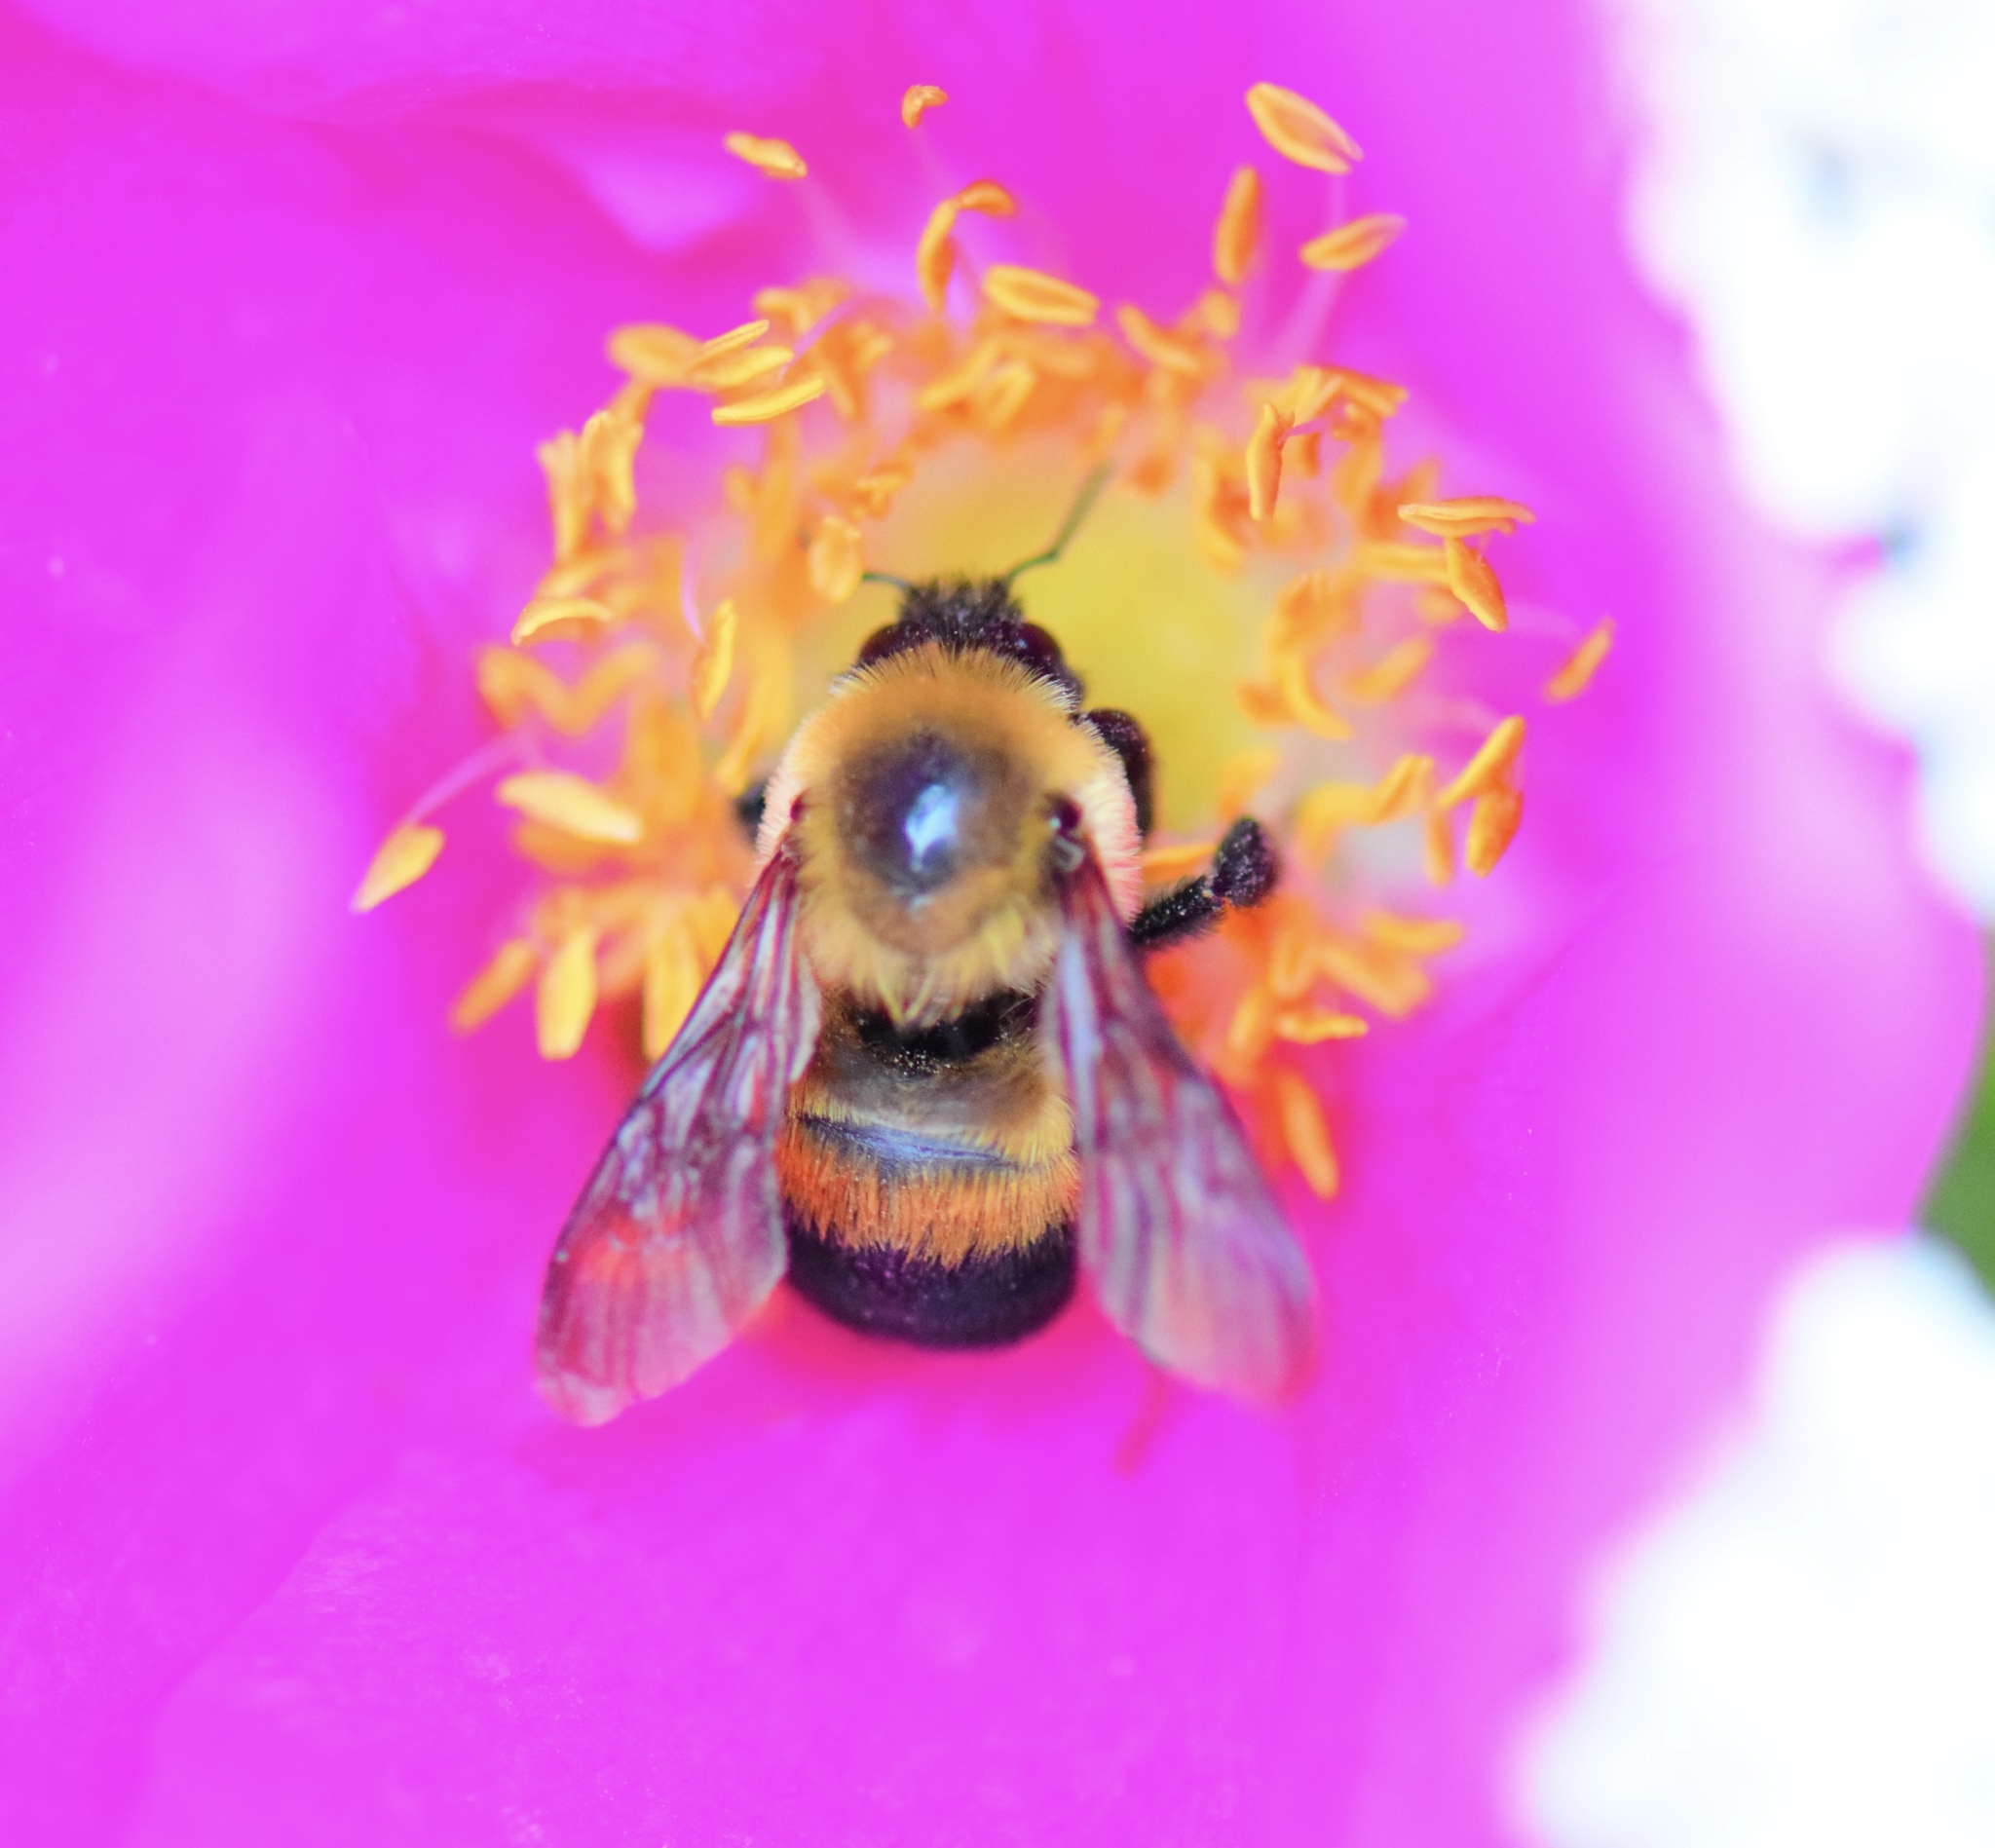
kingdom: Animalia
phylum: Arthropoda
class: Insecta
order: Hymenoptera
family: Apidae
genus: Bombus
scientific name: Bombus griseocollis
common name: Brown-belted bumble bee
